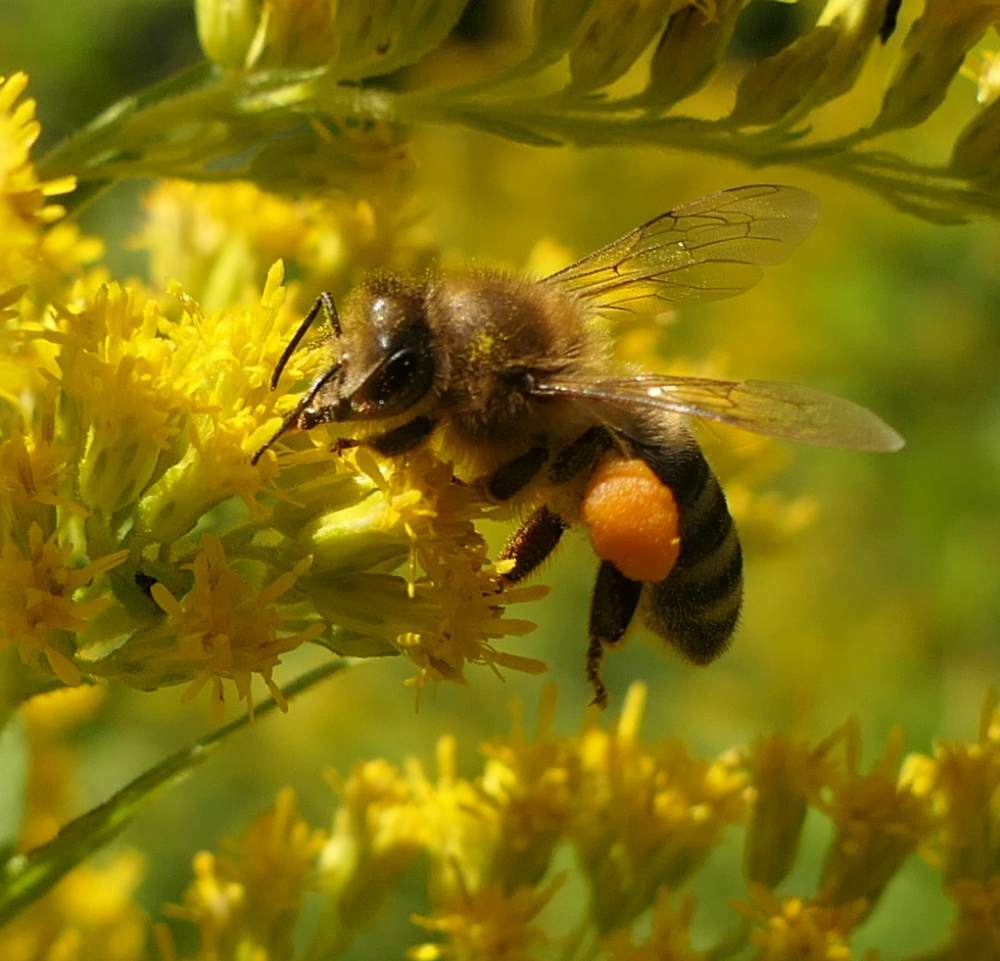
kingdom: Animalia
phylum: Arthropoda
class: Insecta
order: Hymenoptera
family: Apidae
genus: Apis
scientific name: Apis mellifera
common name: Honey bee
